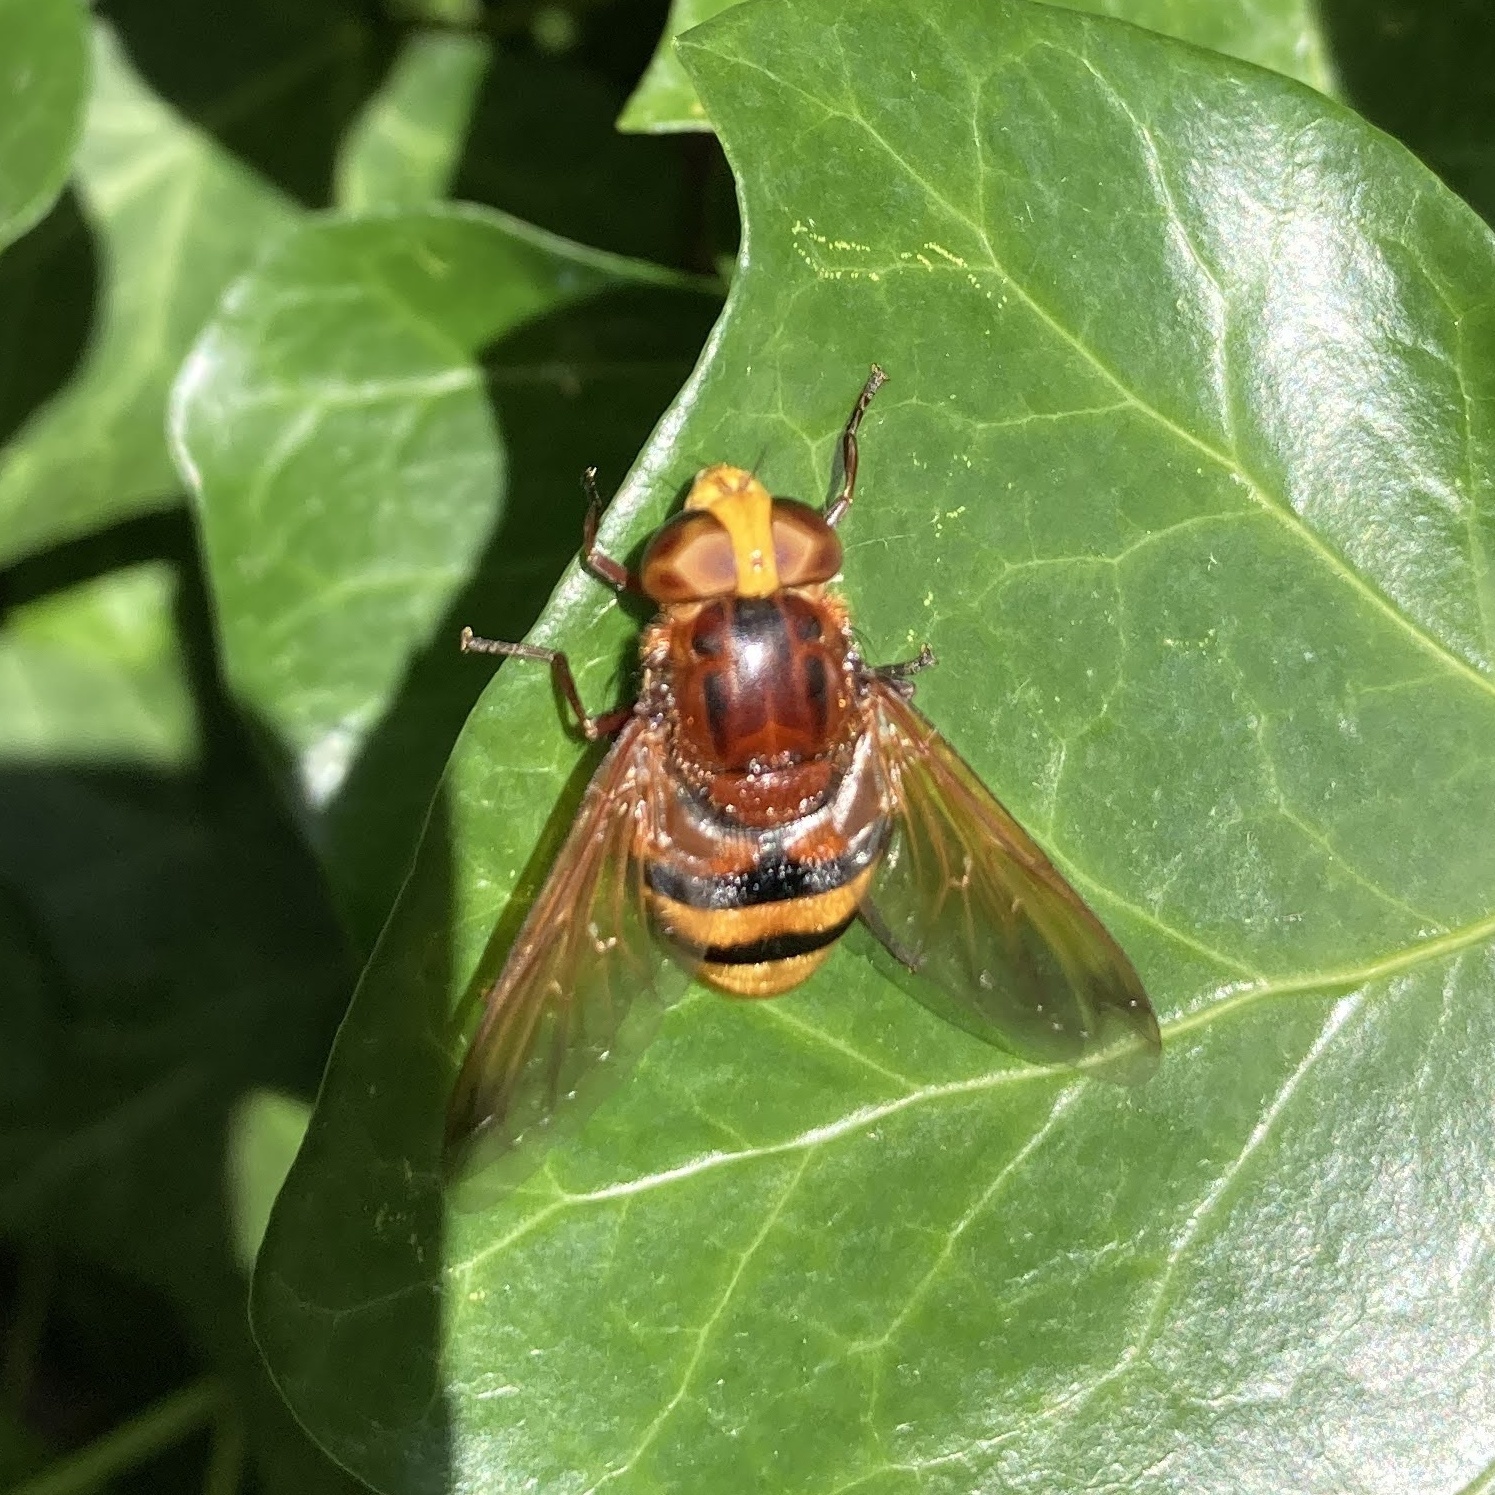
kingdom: Animalia
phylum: Arthropoda
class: Insecta
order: Diptera
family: Syrphidae
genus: Volucella
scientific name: Volucella zonaria
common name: Hornet hoverfly
